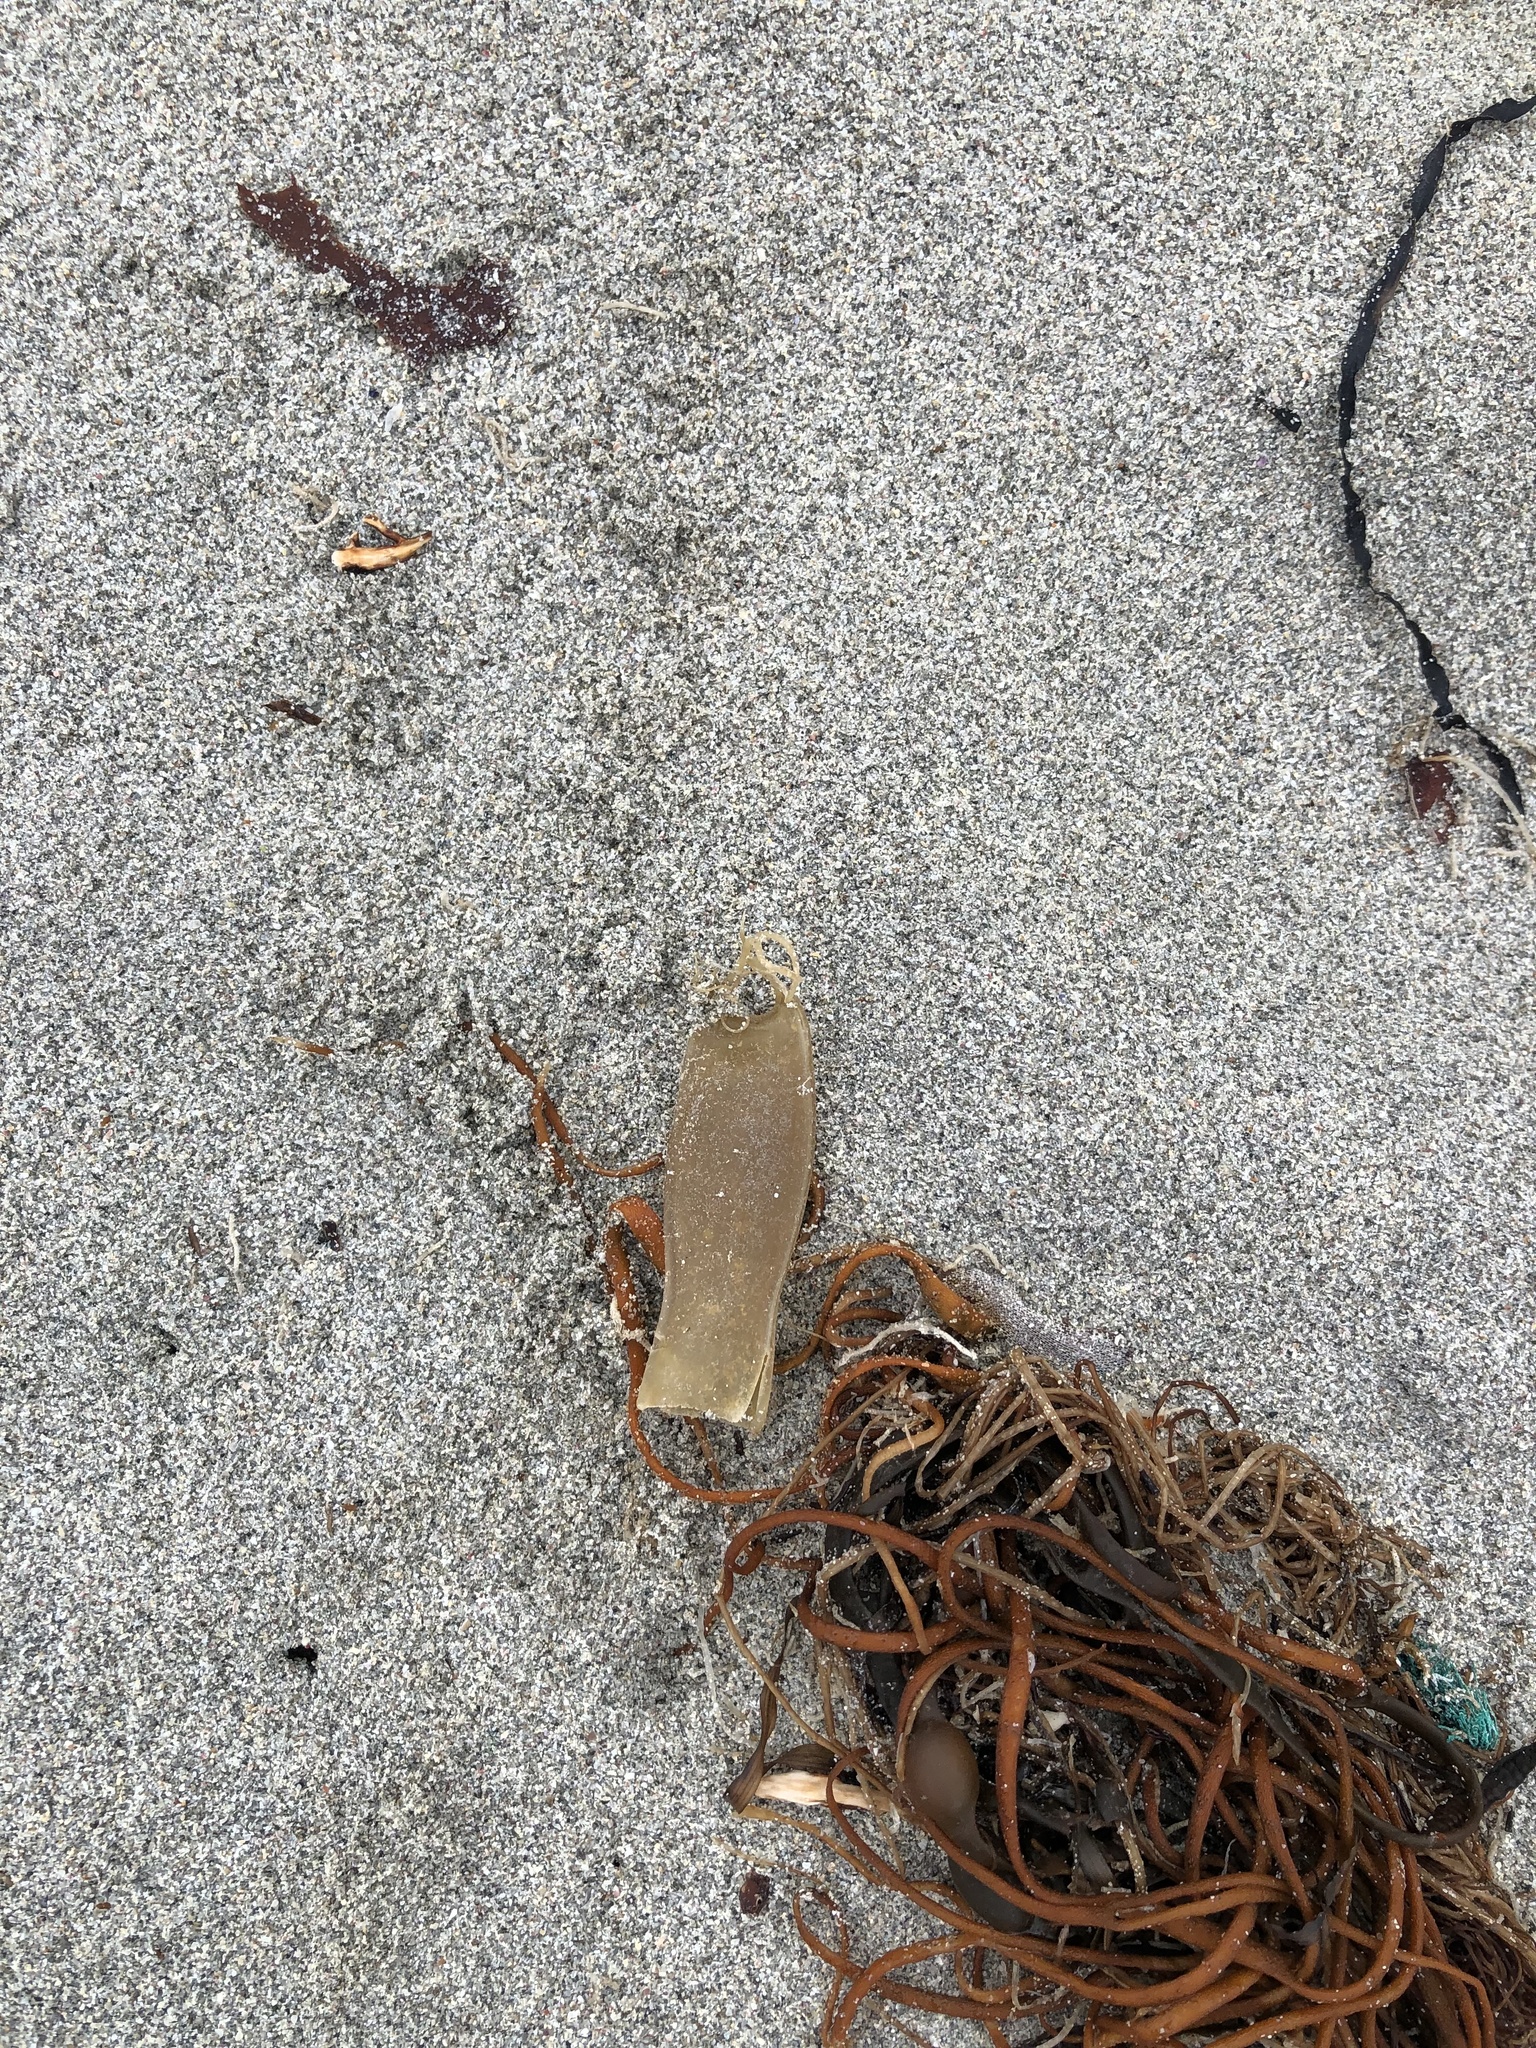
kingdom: Animalia
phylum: Chordata
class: Elasmobranchii
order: Carcharhiniformes
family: Scyliorhinidae
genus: Scyliorhinus
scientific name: Scyliorhinus canicula
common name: Lesser spotted dogfish
